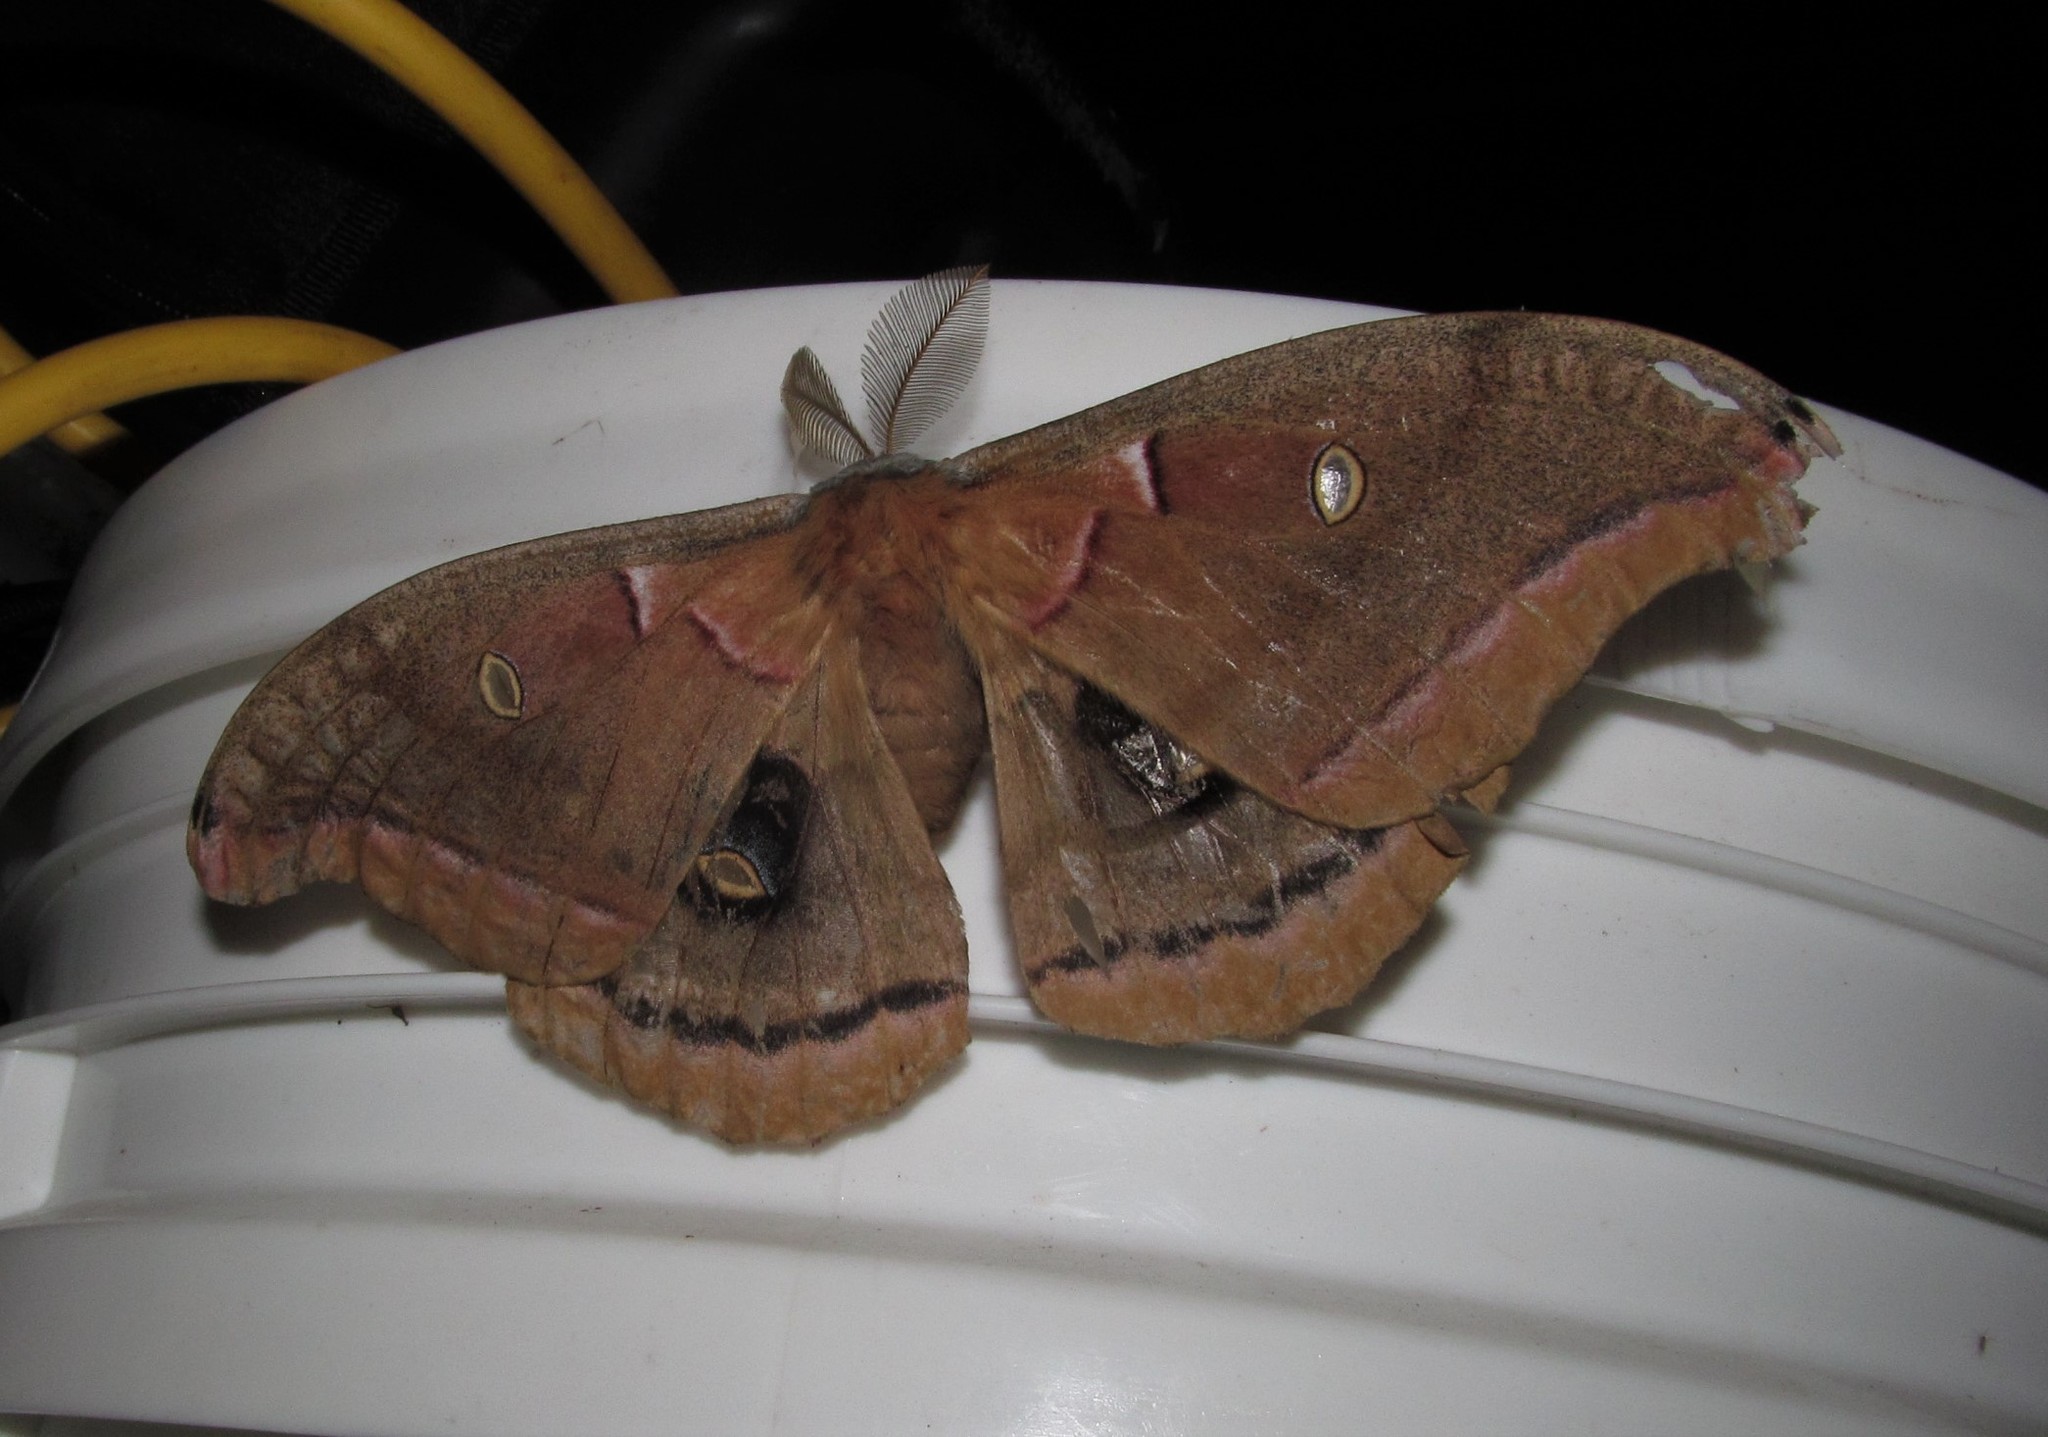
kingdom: Animalia
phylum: Arthropoda
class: Insecta
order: Lepidoptera
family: Saturniidae
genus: Antheraea
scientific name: Antheraea polyphemus
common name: Polyphemus moth
